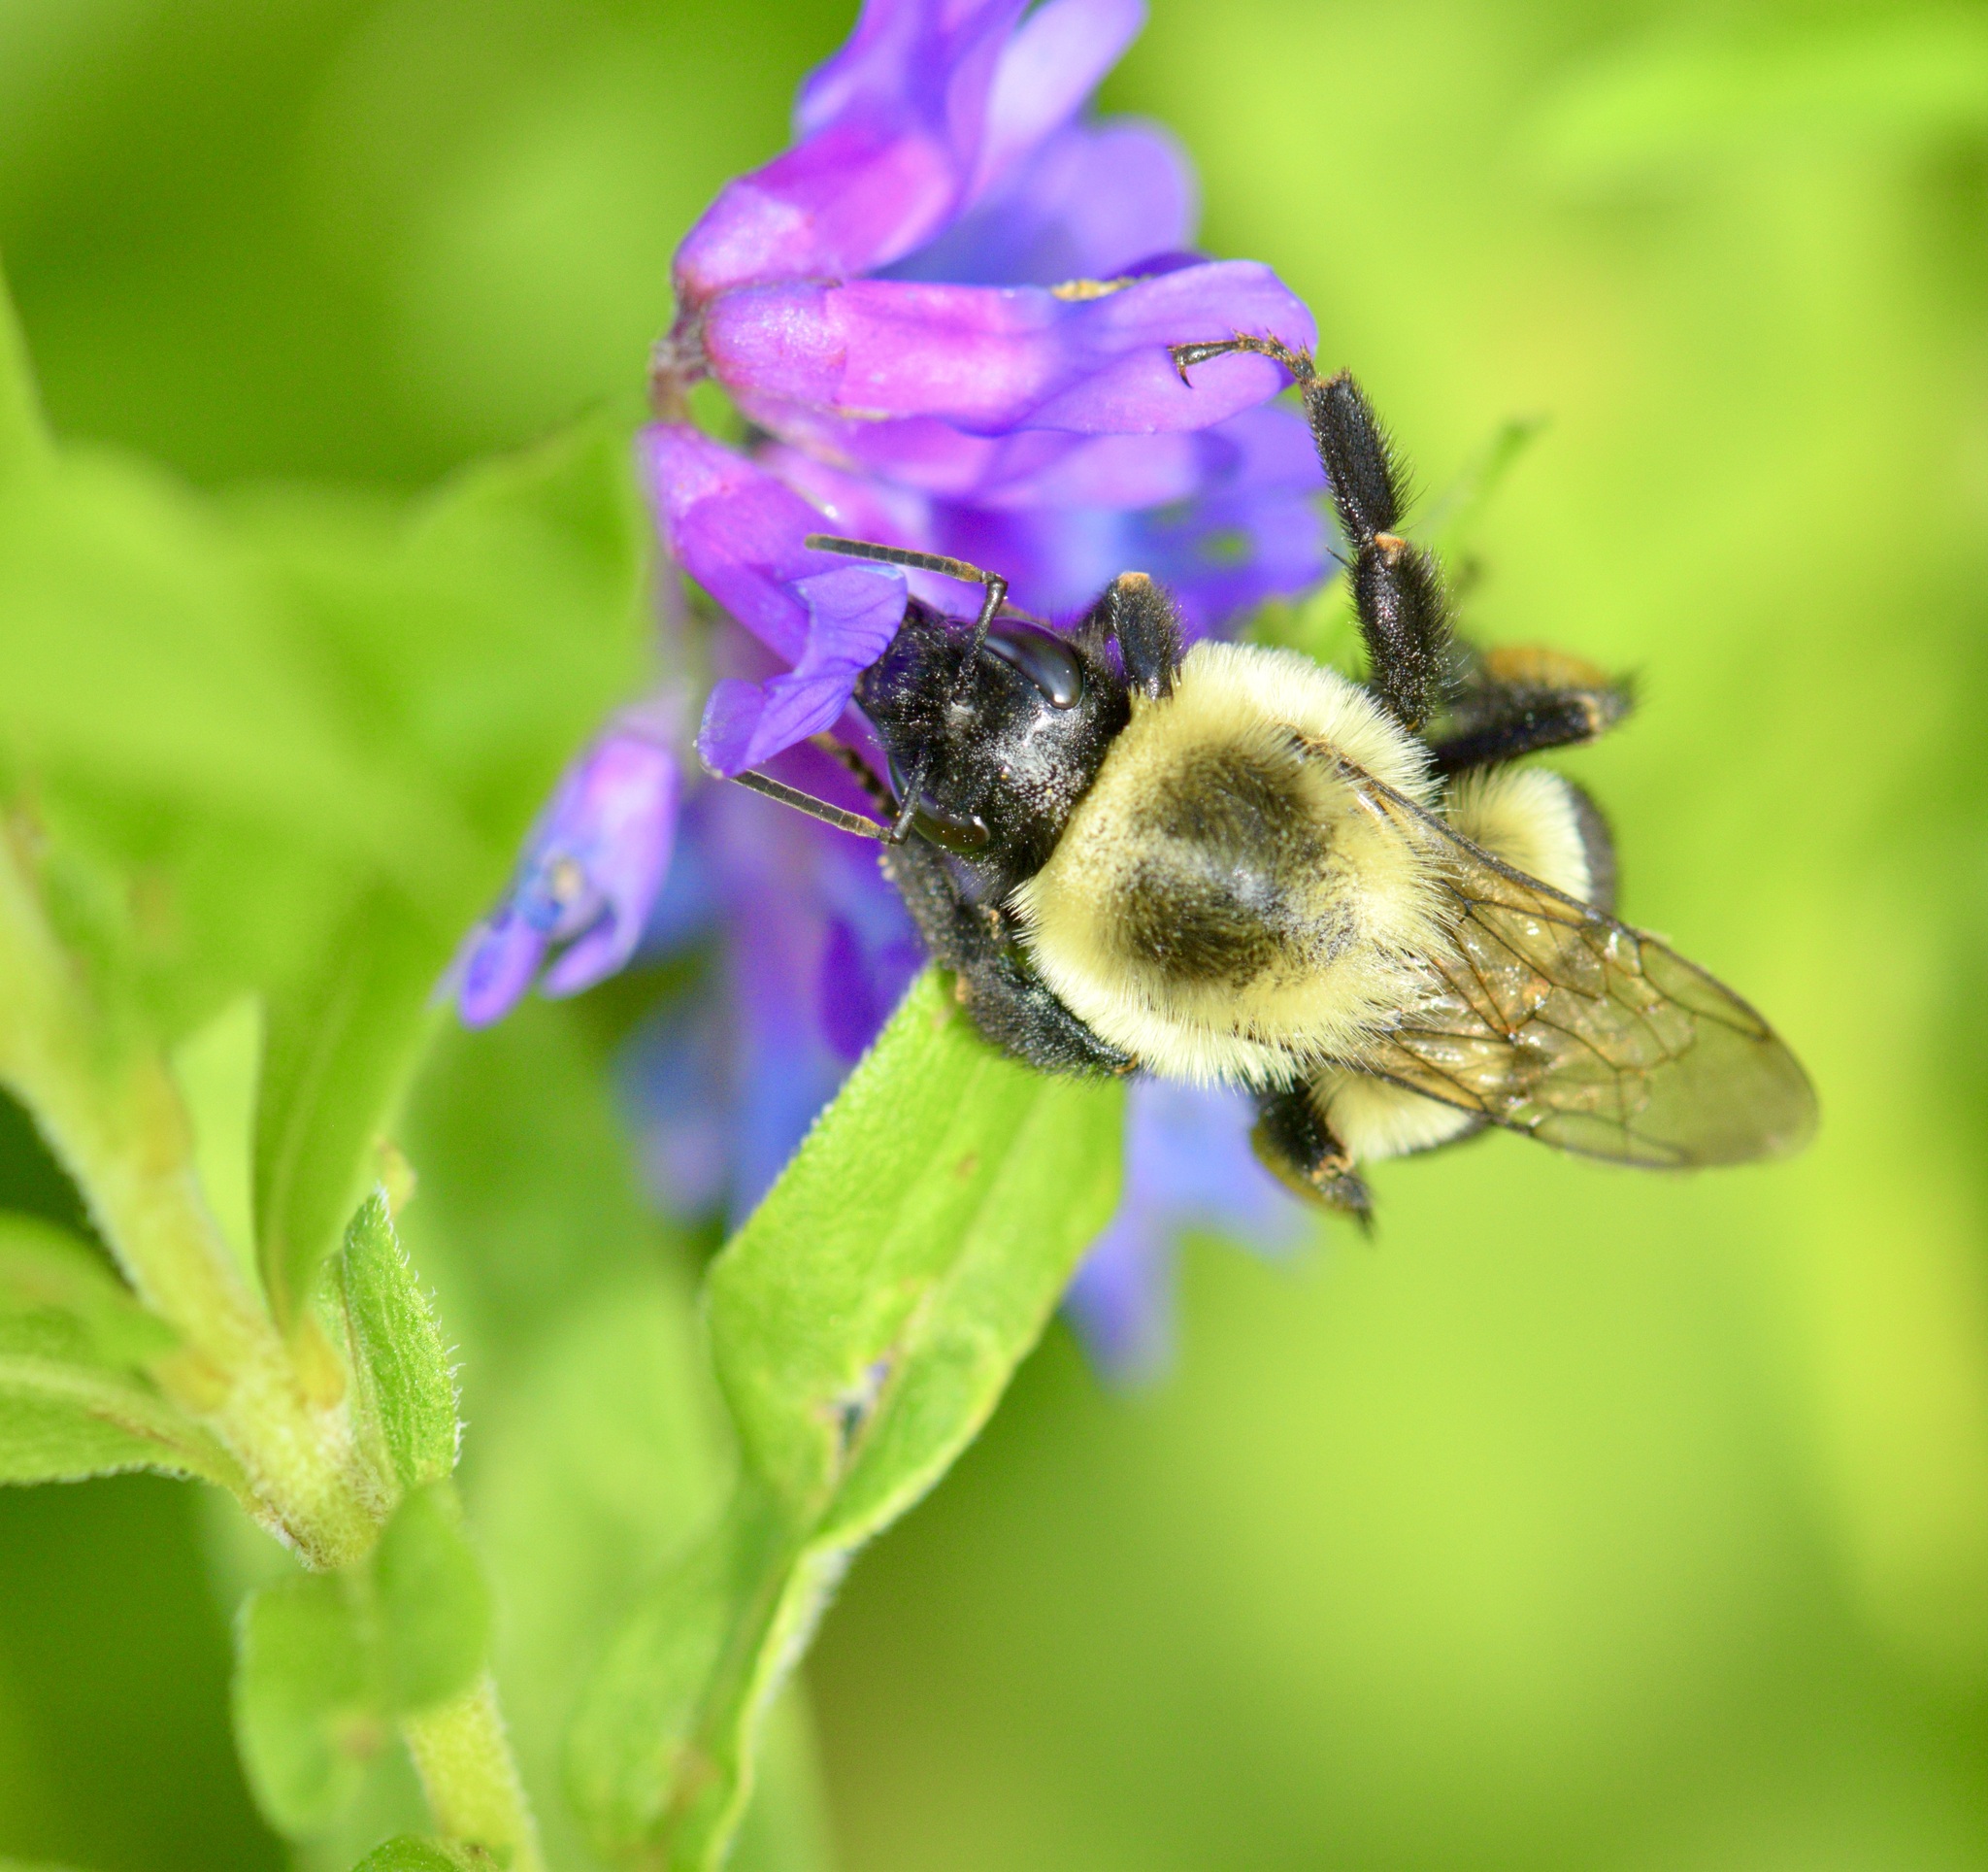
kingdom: Animalia
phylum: Arthropoda
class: Insecta
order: Hymenoptera
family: Apidae
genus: Bombus
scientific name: Bombus impatiens
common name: Common eastern bumble bee
